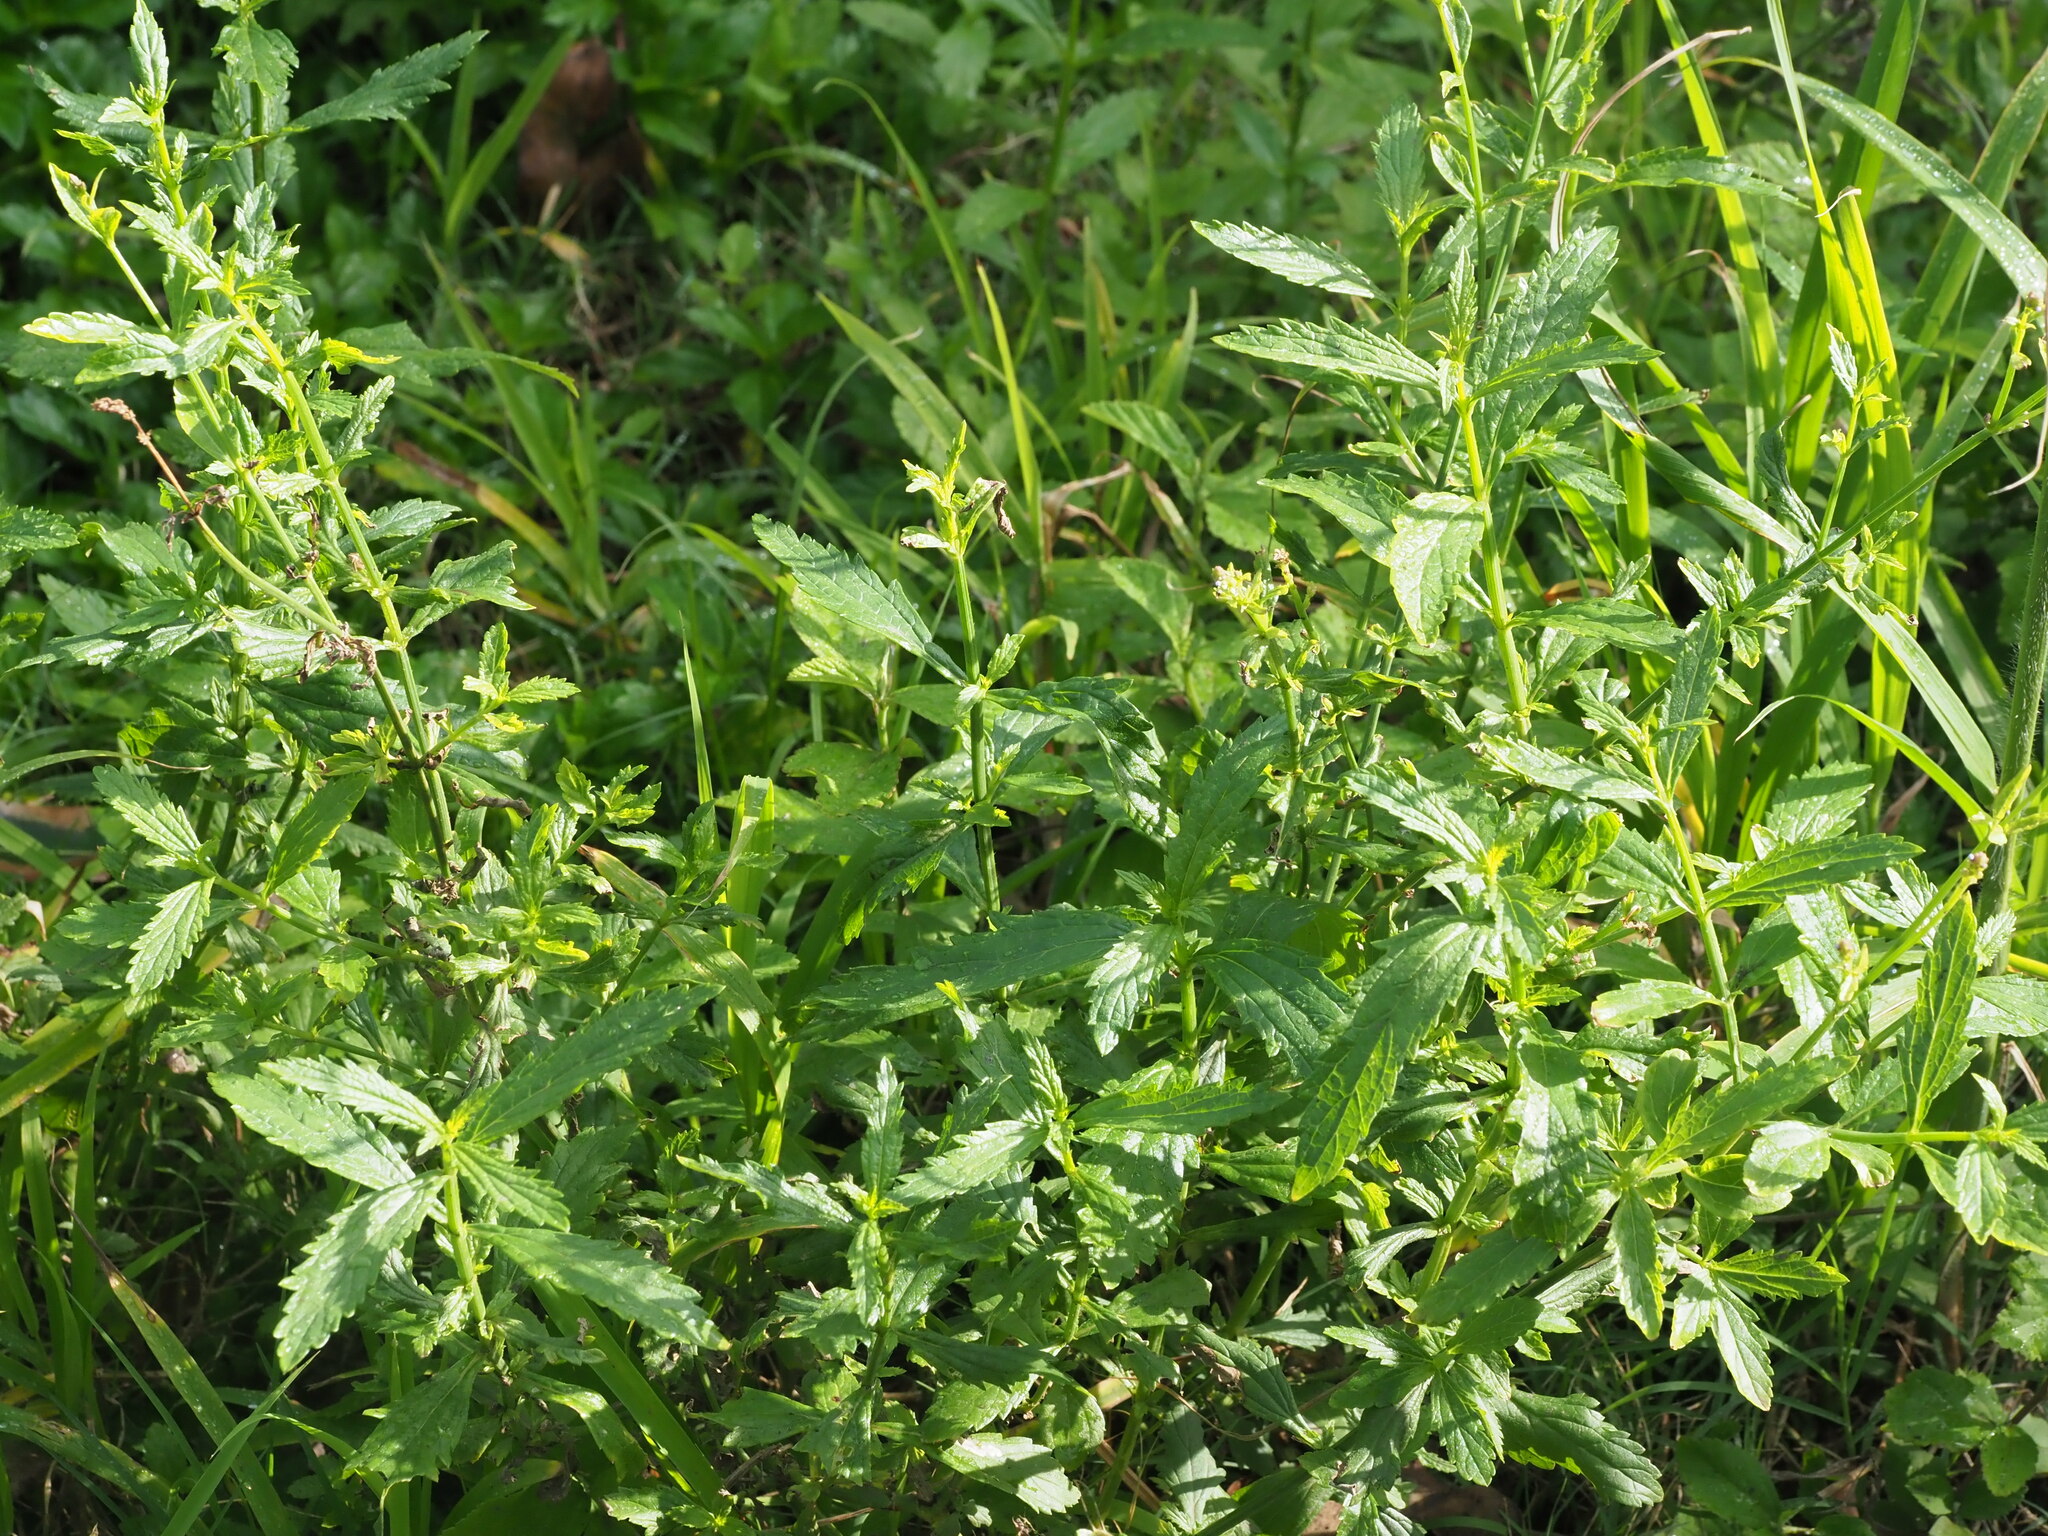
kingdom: Plantae
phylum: Tracheophyta
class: Magnoliopsida
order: Lamiales
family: Verbenaceae
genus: Verbena
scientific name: Verbena litoralis
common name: Seashore vervain
